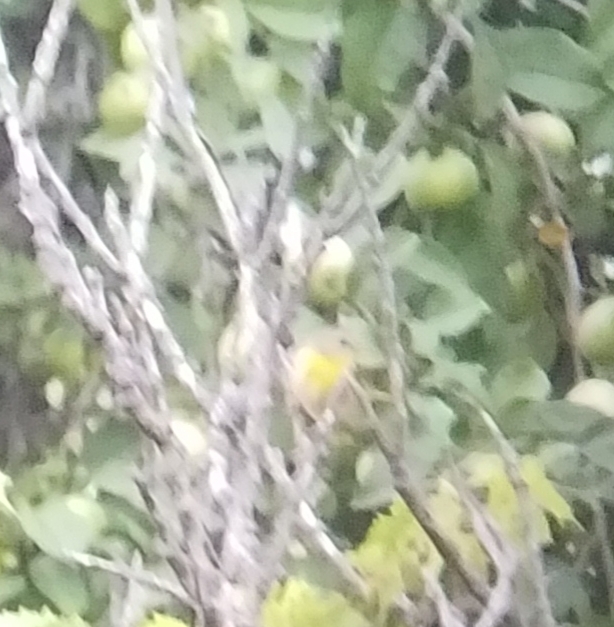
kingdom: Animalia
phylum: Chordata
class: Aves
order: Passeriformes
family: Parulidae
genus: Geothlypis
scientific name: Geothlypis trichas
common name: Common yellowthroat
